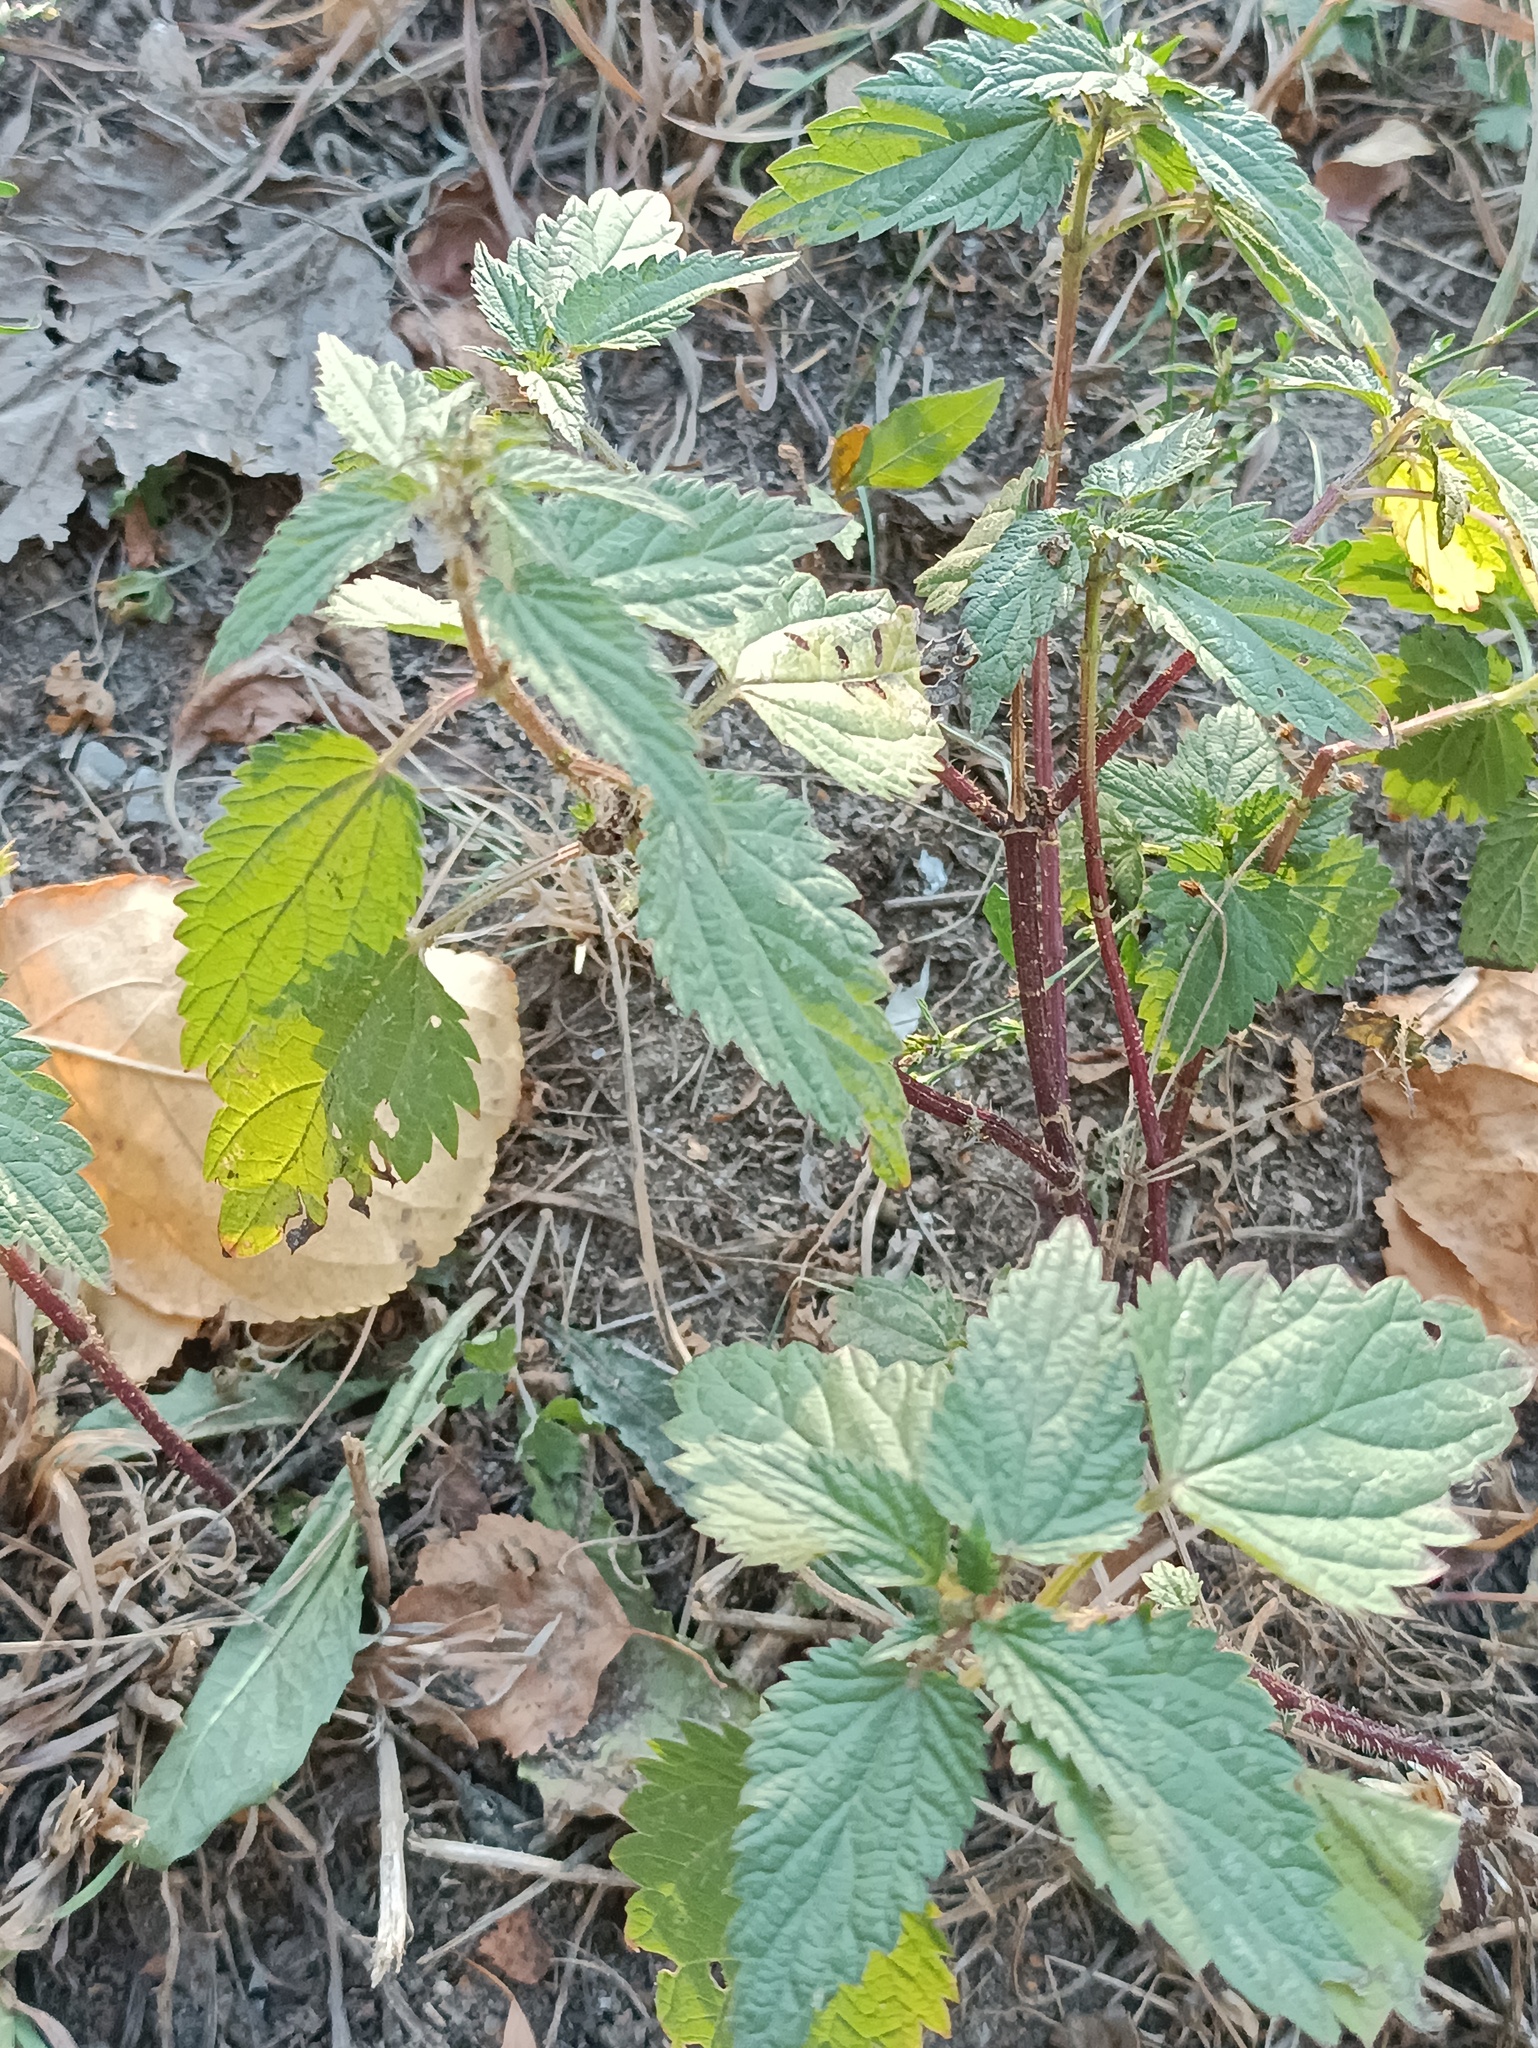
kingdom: Plantae
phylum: Tracheophyta
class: Magnoliopsida
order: Rosales
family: Urticaceae
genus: Urtica
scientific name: Urtica dioica
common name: Common nettle
